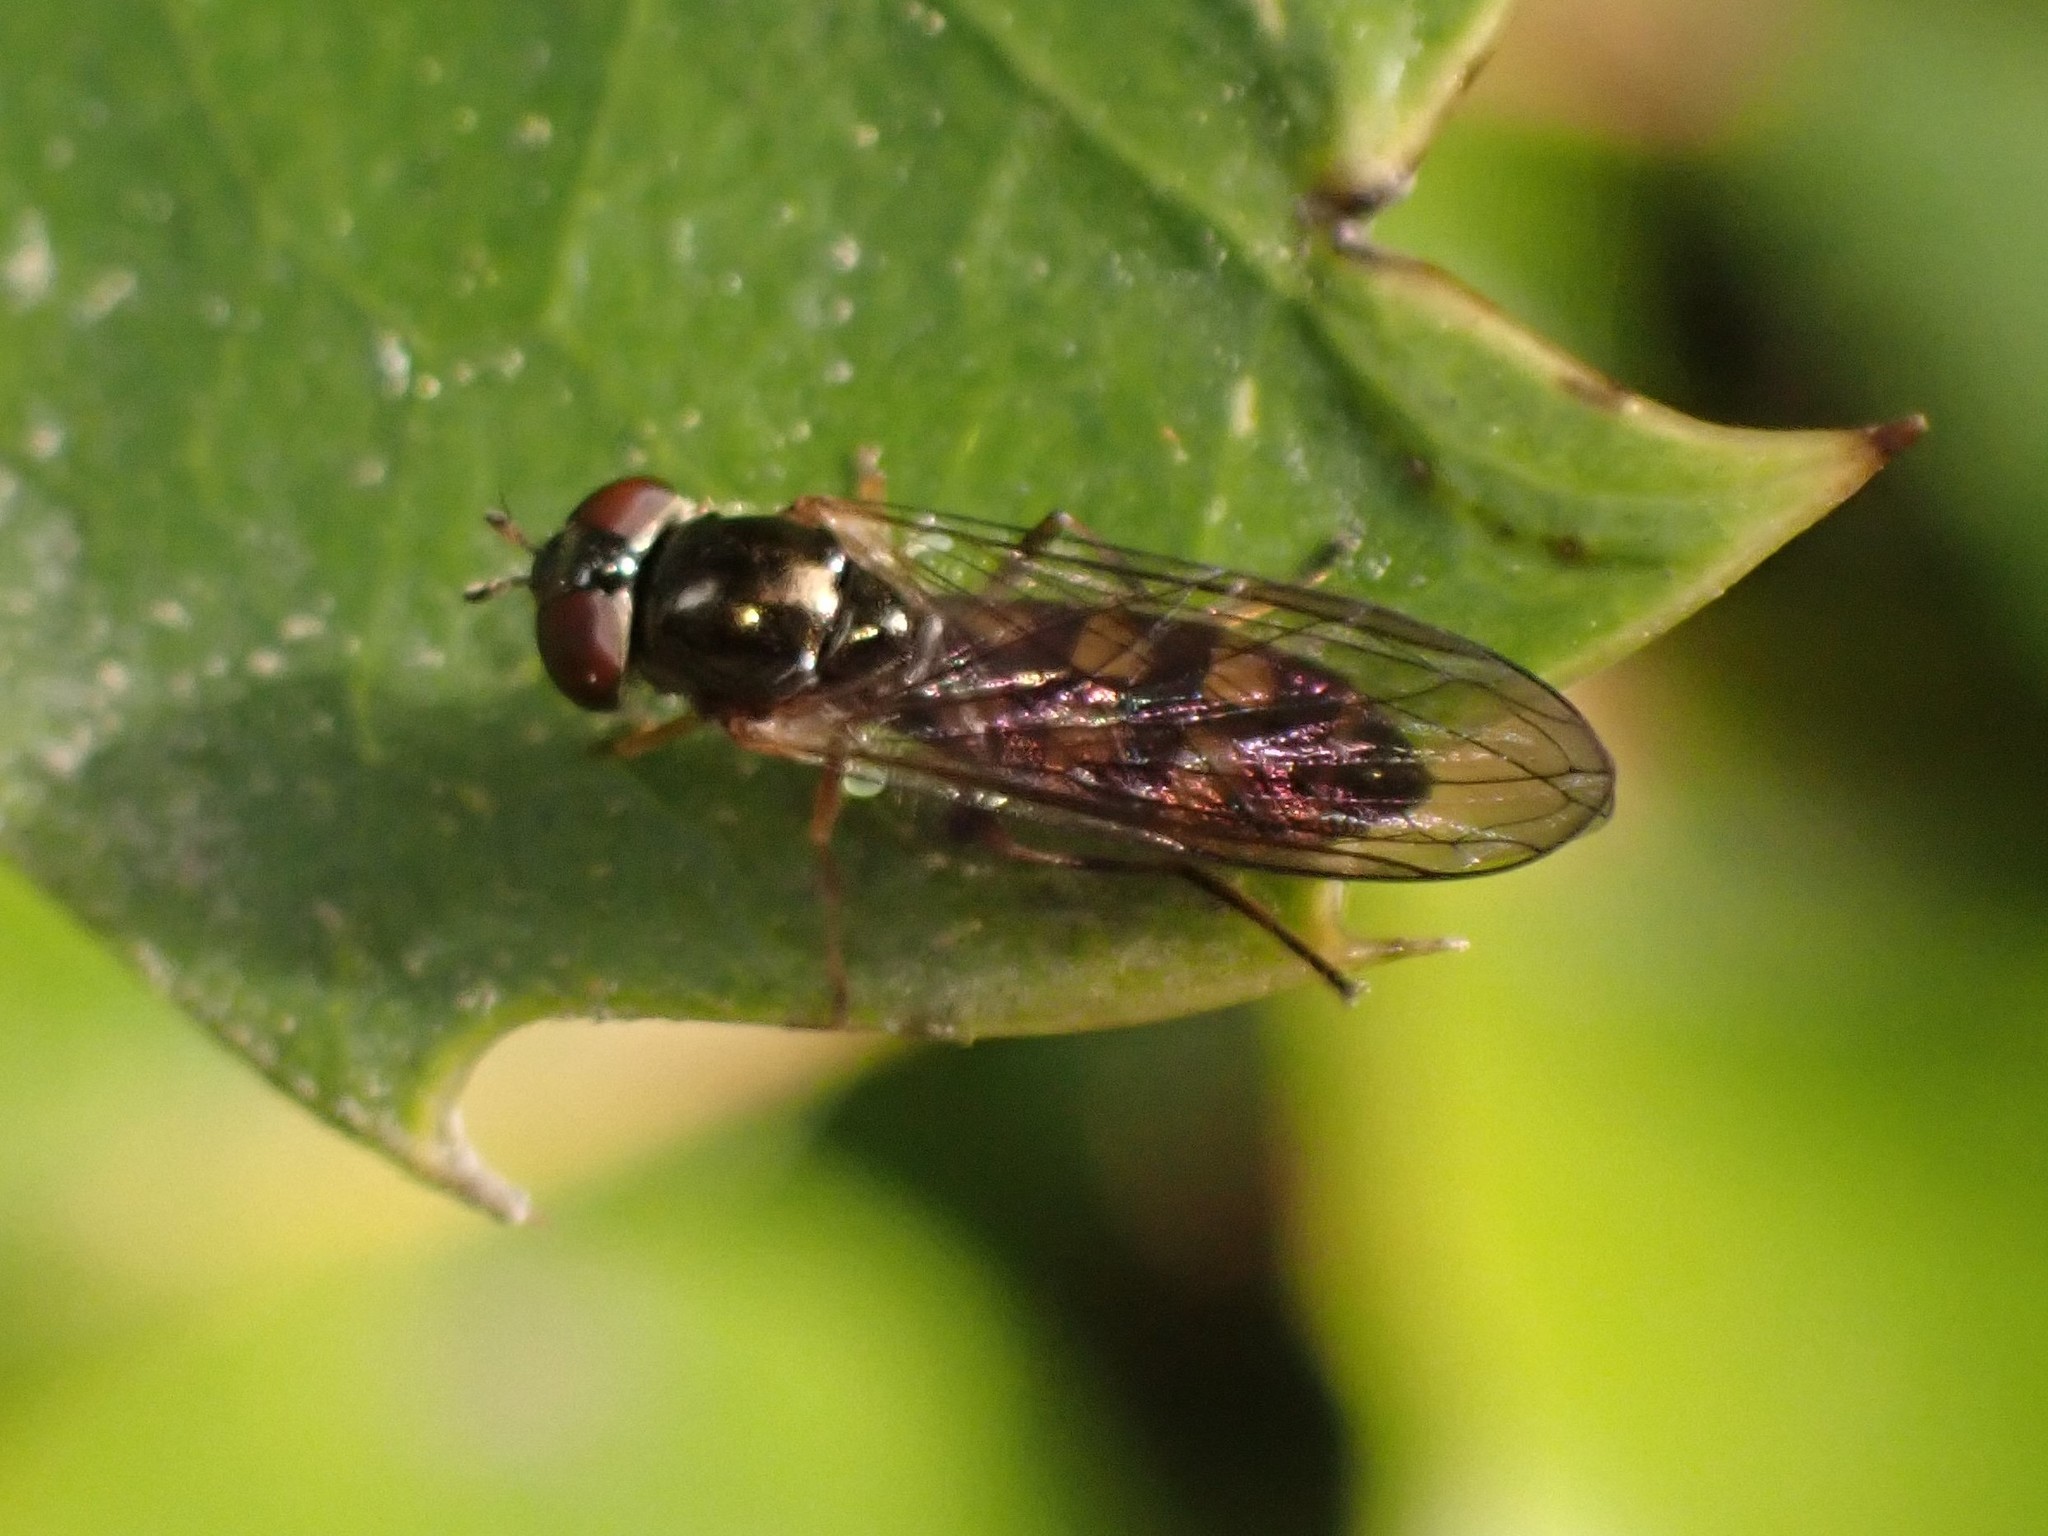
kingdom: Animalia
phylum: Arthropoda
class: Insecta
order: Diptera
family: Syrphidae
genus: Melanostoma
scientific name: Melanostoma mellina
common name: Hover fly
